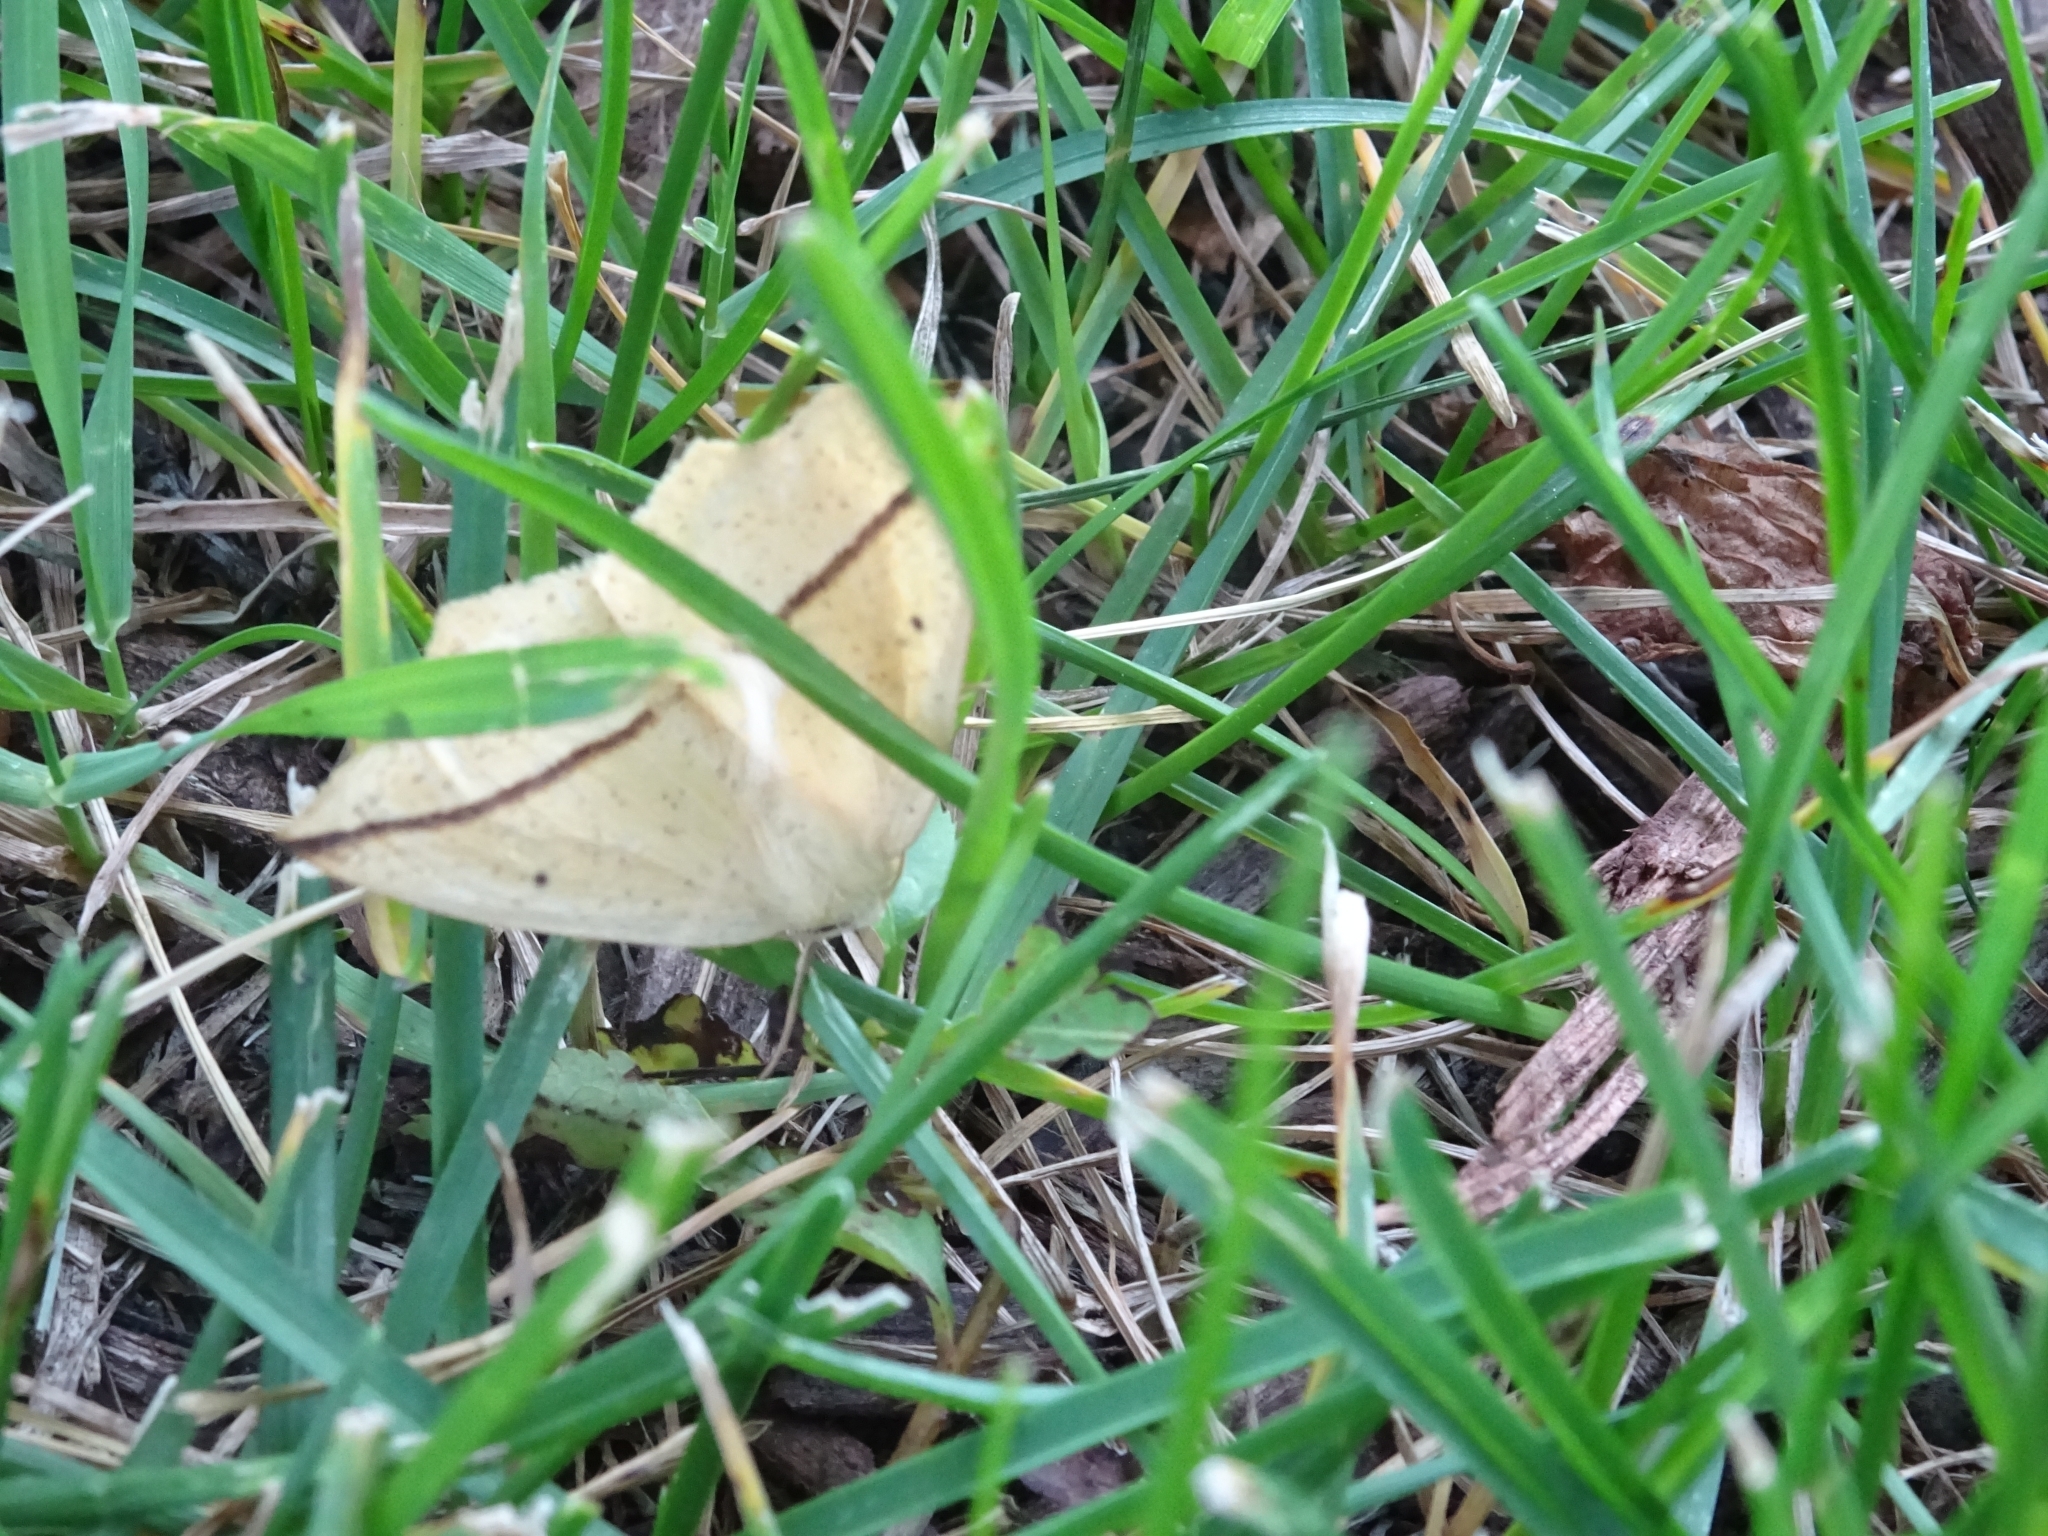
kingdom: Animalia
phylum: Arthropoda
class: Insecta
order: Lepidoptera
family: Geometridae
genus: Tetracis
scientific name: Tetracis crocallata
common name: Yellow slant-line
